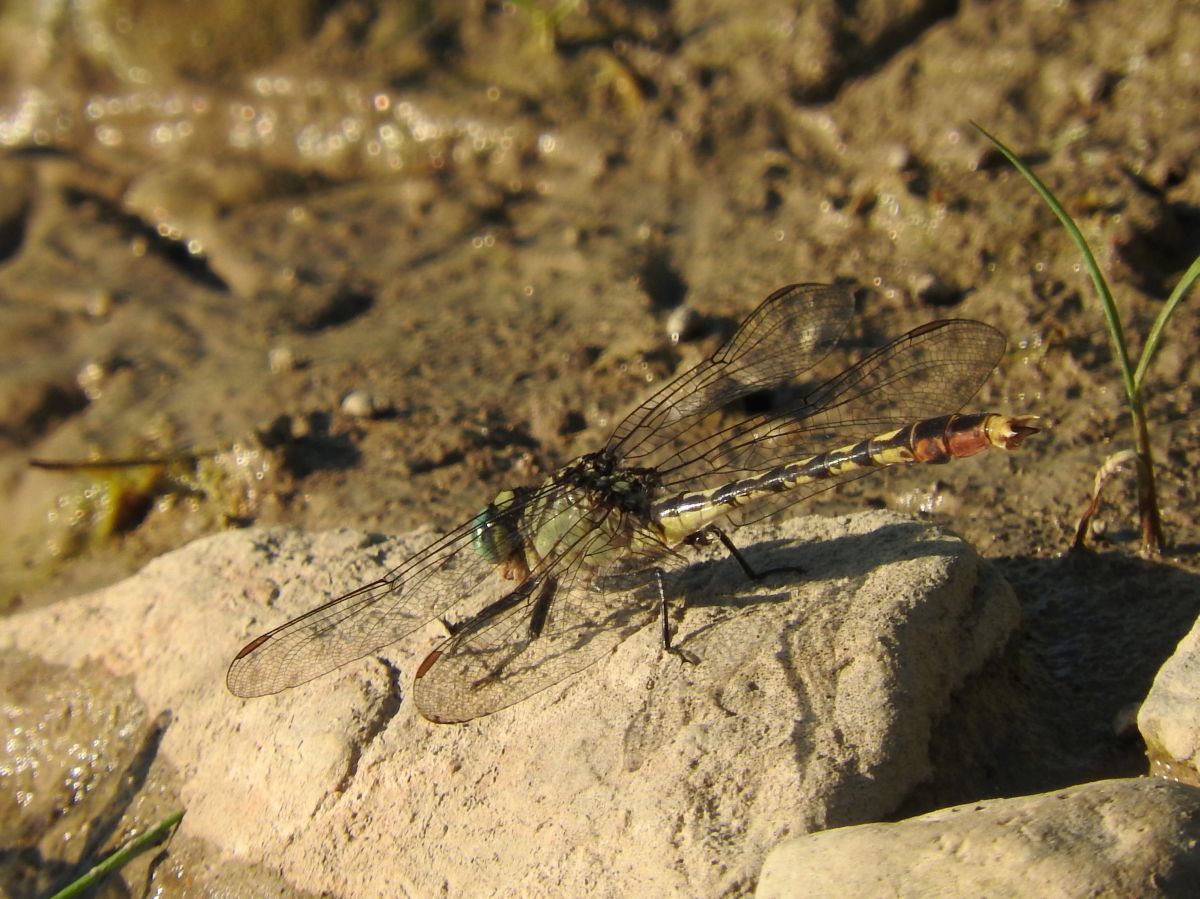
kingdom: Animalia
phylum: Arthropoda
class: Insecta
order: Odonata
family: Gomphidae
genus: Arigomphus
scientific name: Arigomphus villosipes
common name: Unicorn clubtail
